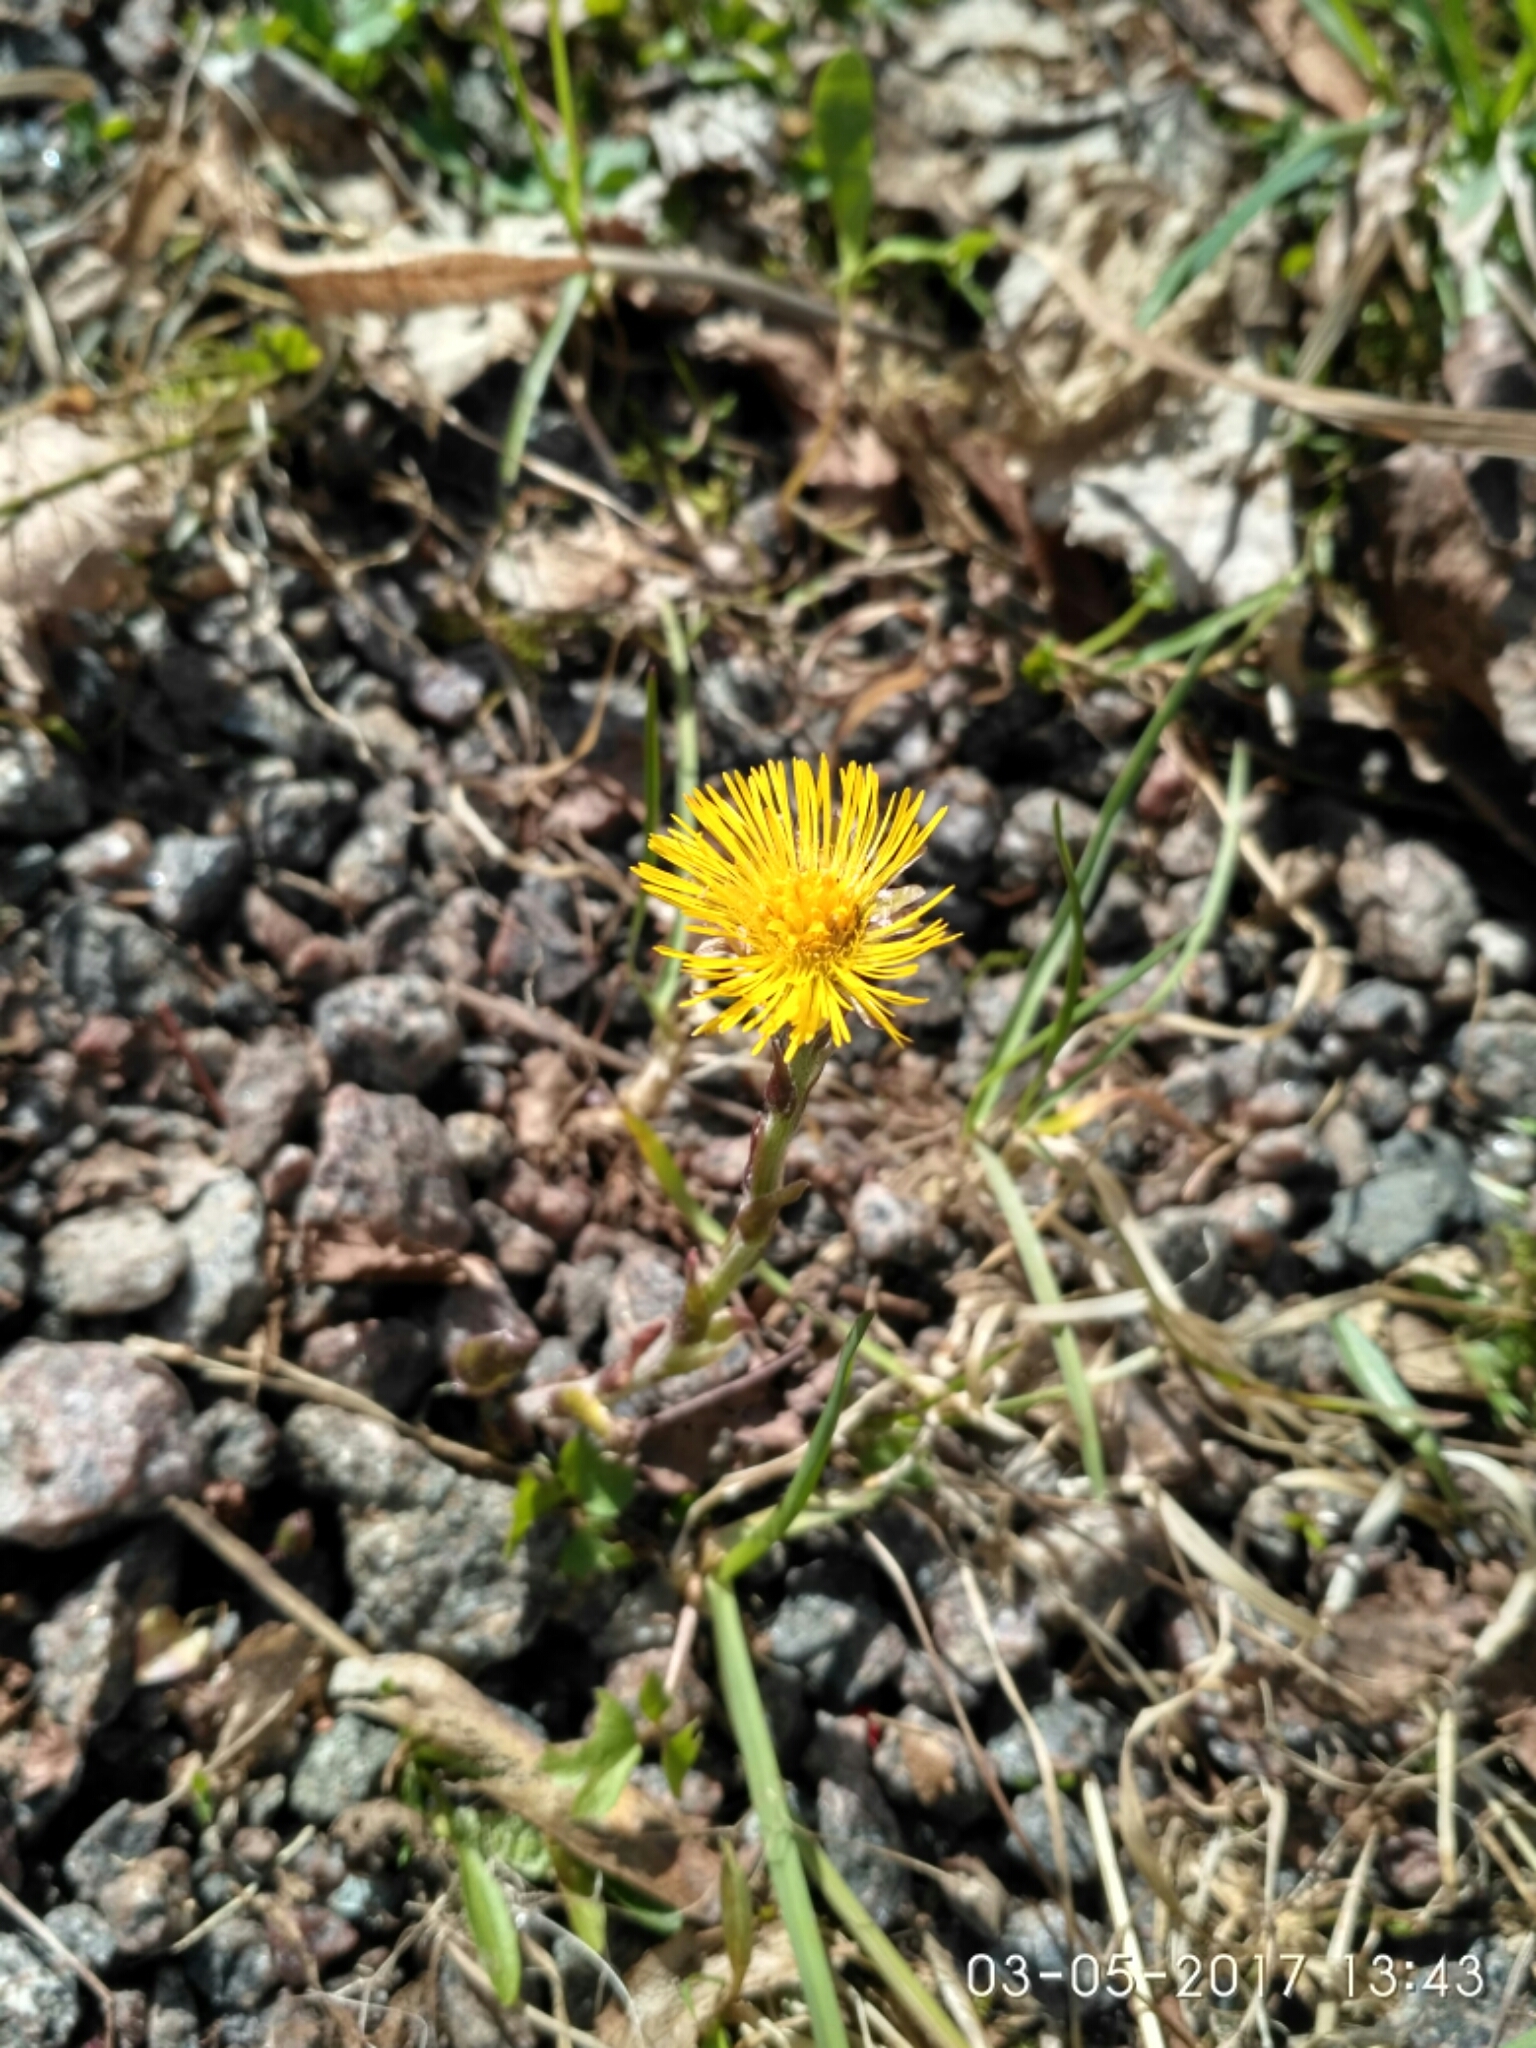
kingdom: Plantae
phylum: Tracheophyta
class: Magnoliopsida
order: Asterales
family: Asteraceae
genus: Tussilago
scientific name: Tussilago farfara
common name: Coltsfoot
